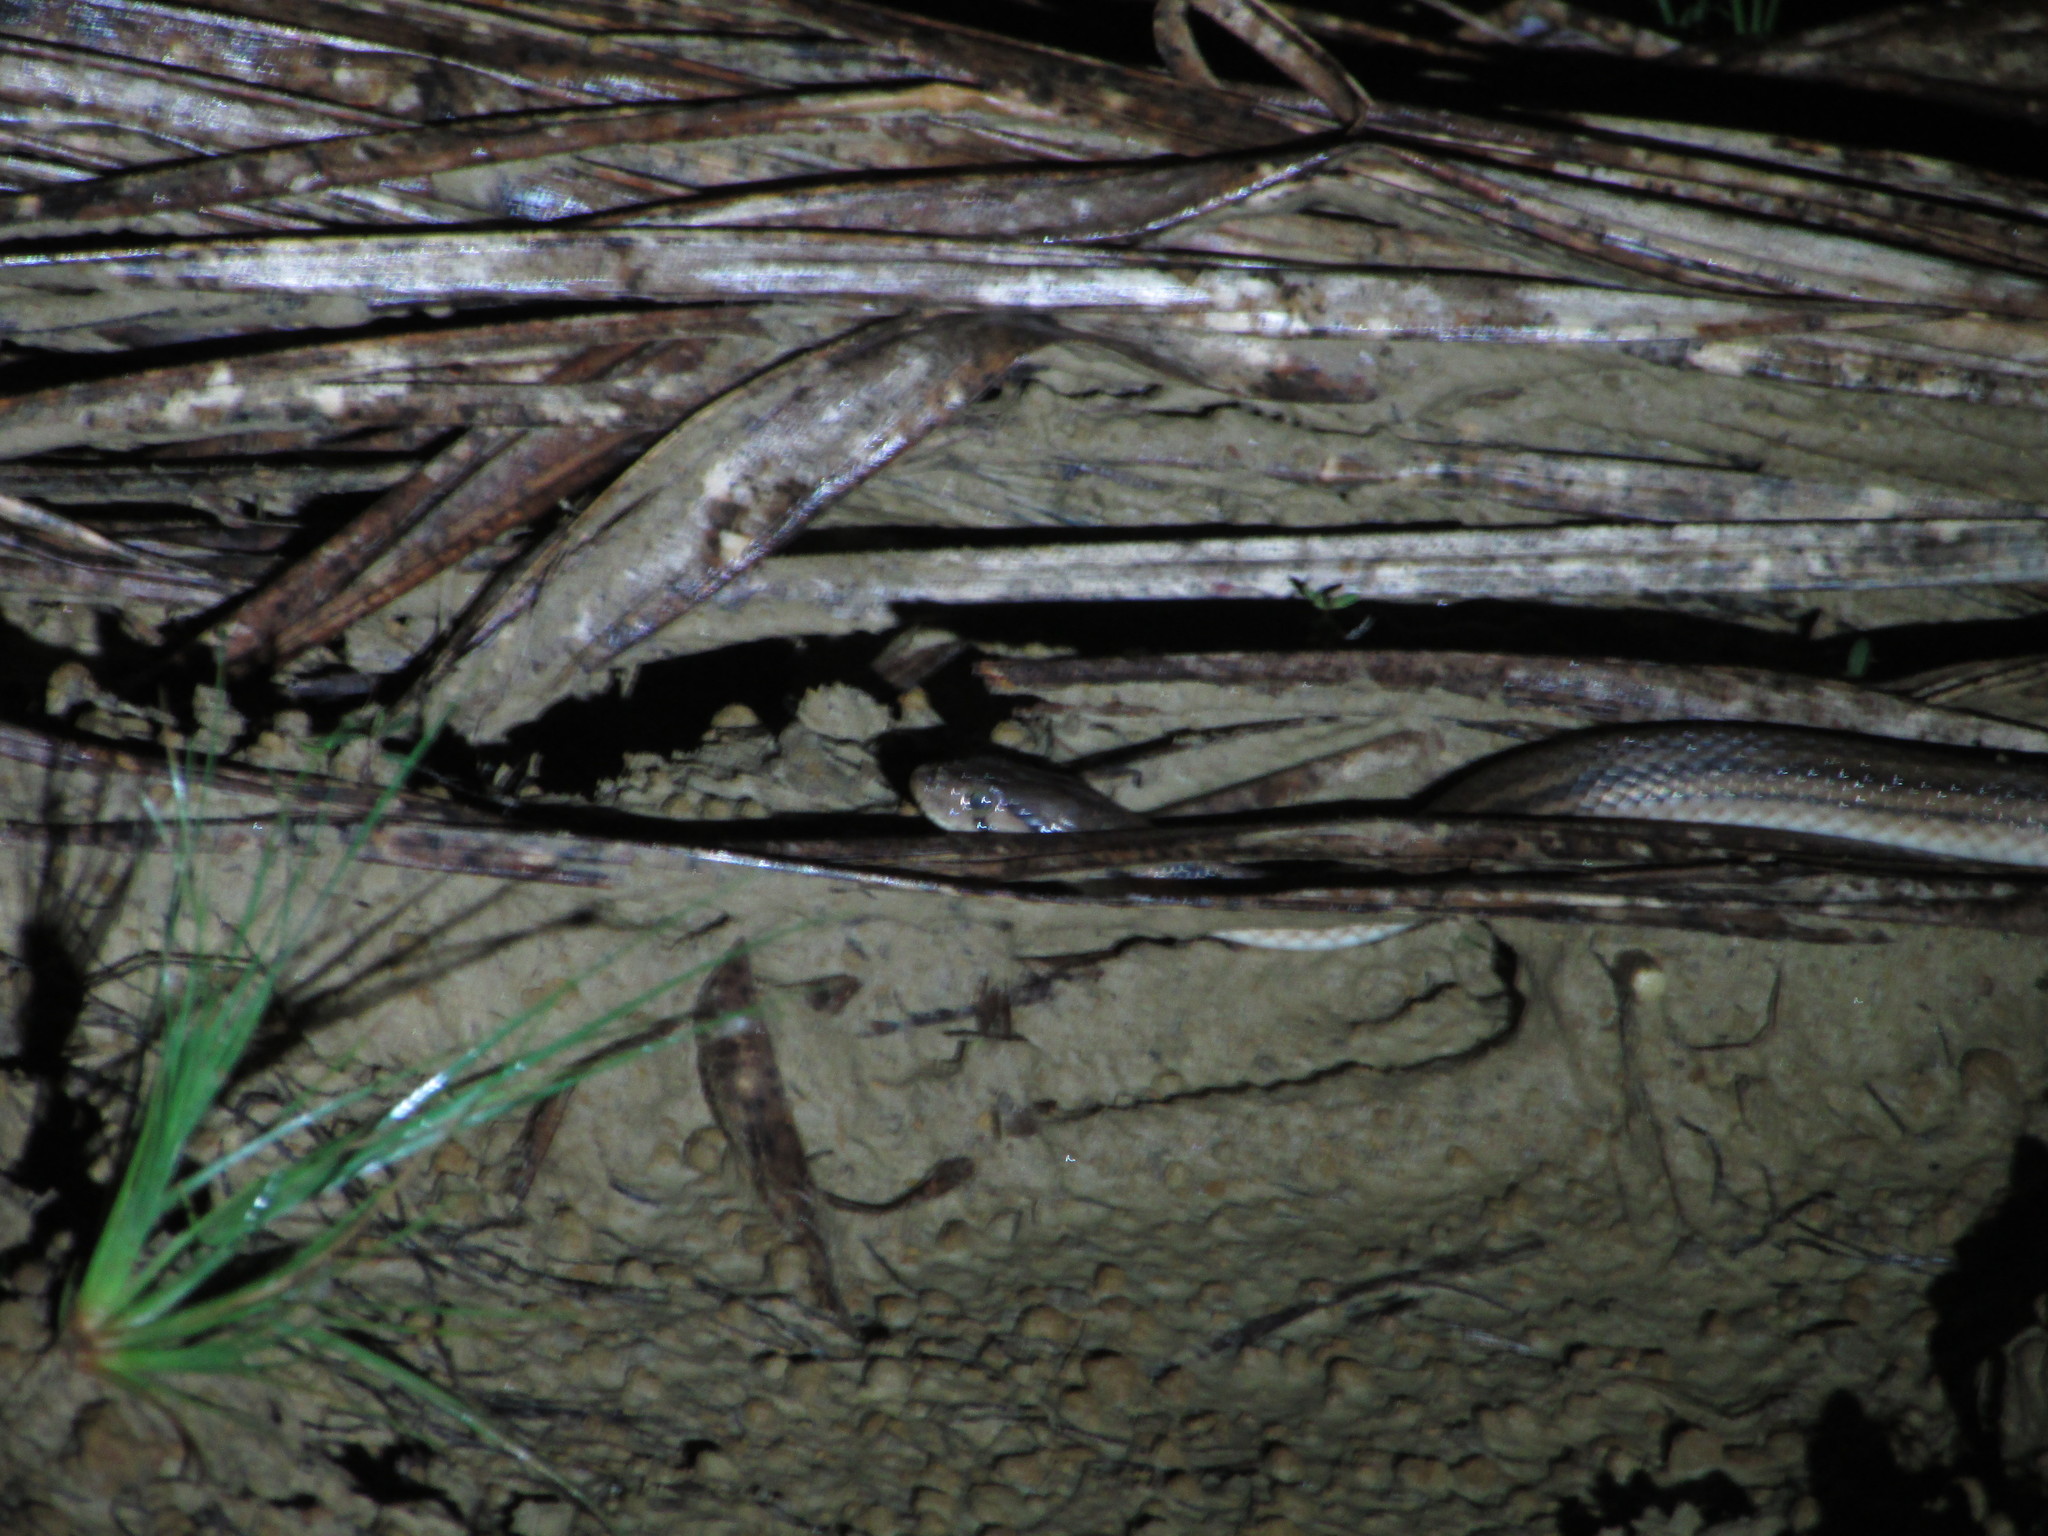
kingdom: Animalia
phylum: Chordata
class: Squamata
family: Colubridae
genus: Fowlea
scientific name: Fowlea piscator
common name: Asiatic water snake
